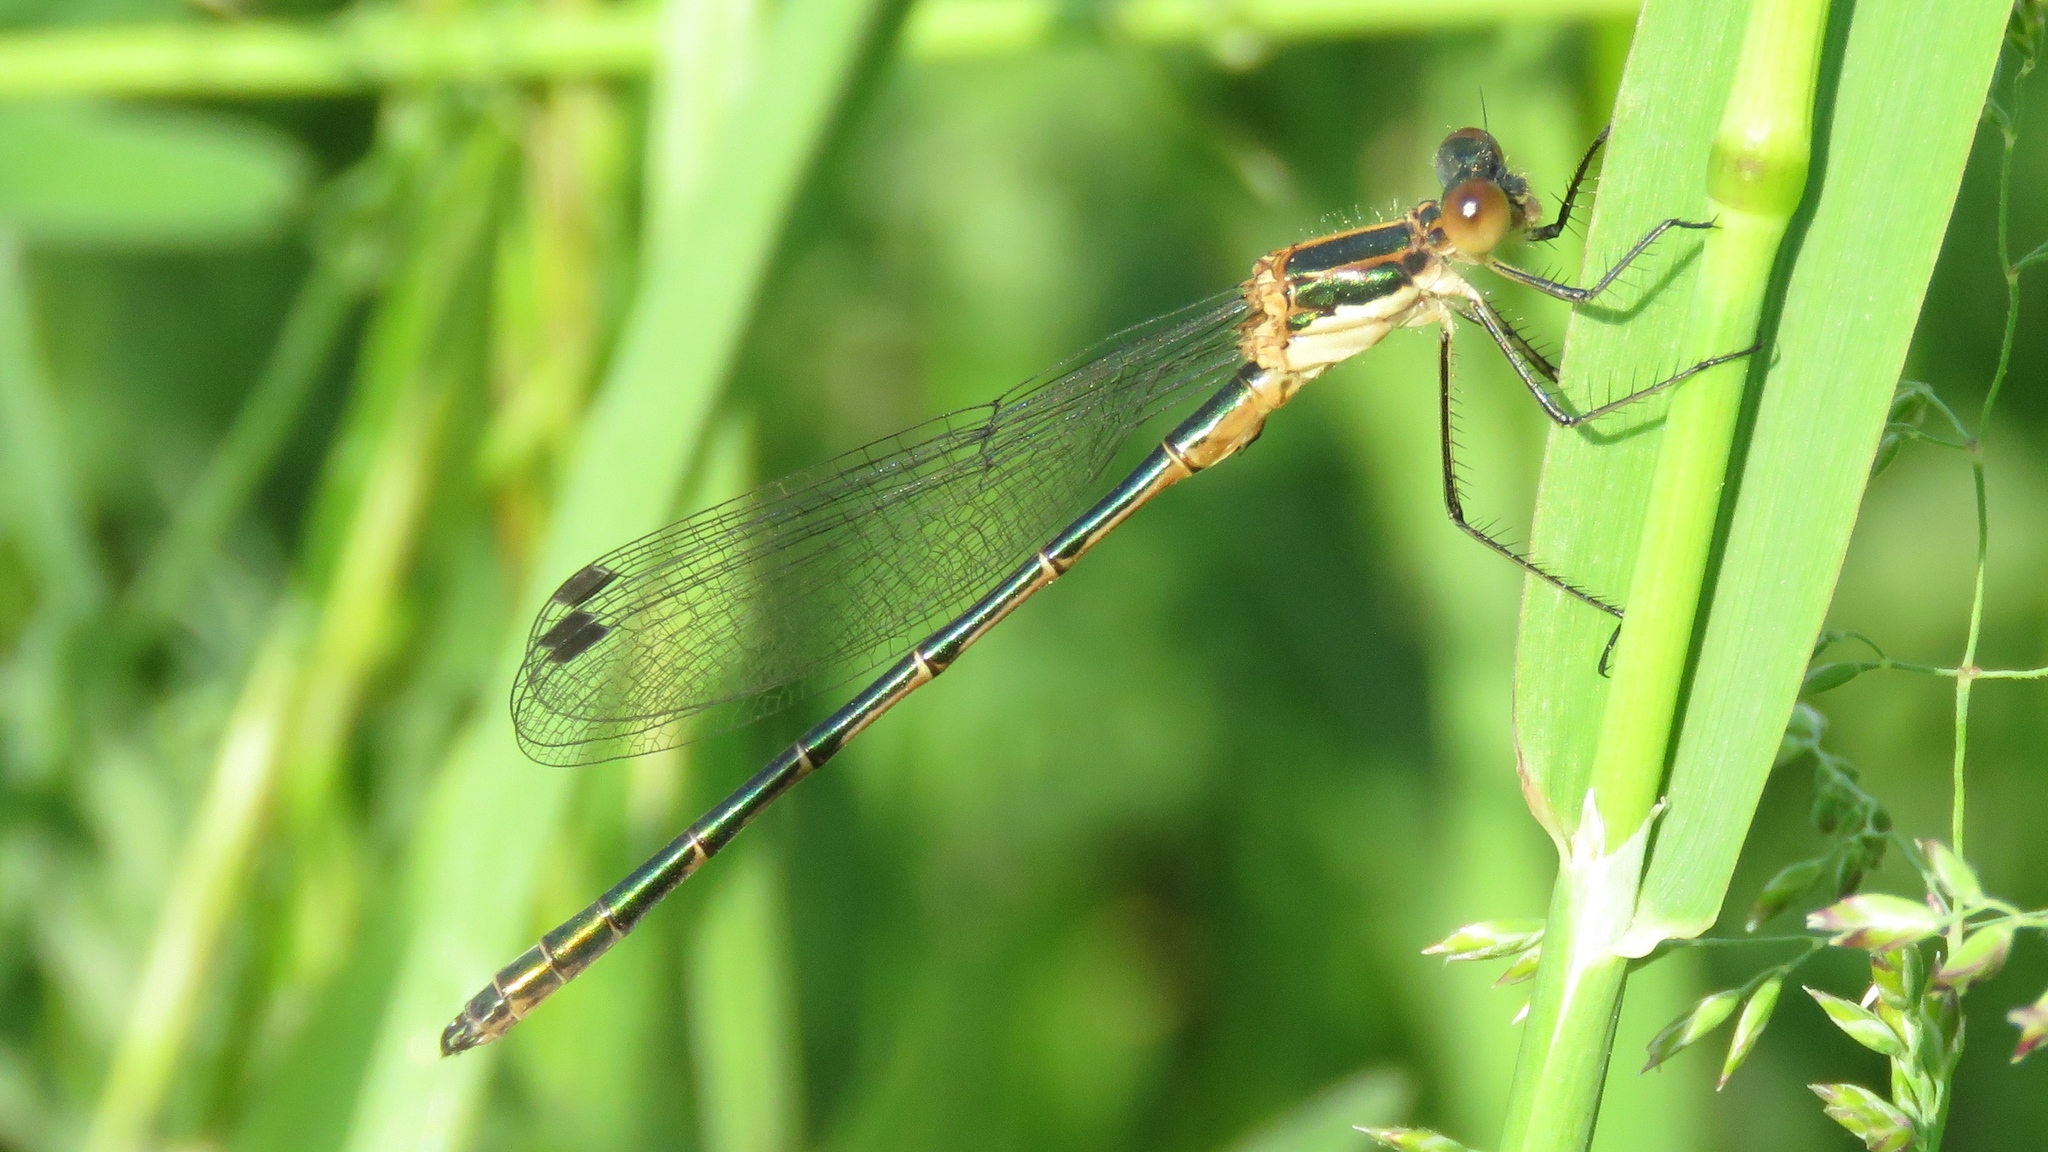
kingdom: Animalia
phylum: Arthropoda
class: Insecta
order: Odonata
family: Lestidae
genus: Lestes
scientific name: Lestes dryas
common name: Scarce emerald damselfly
